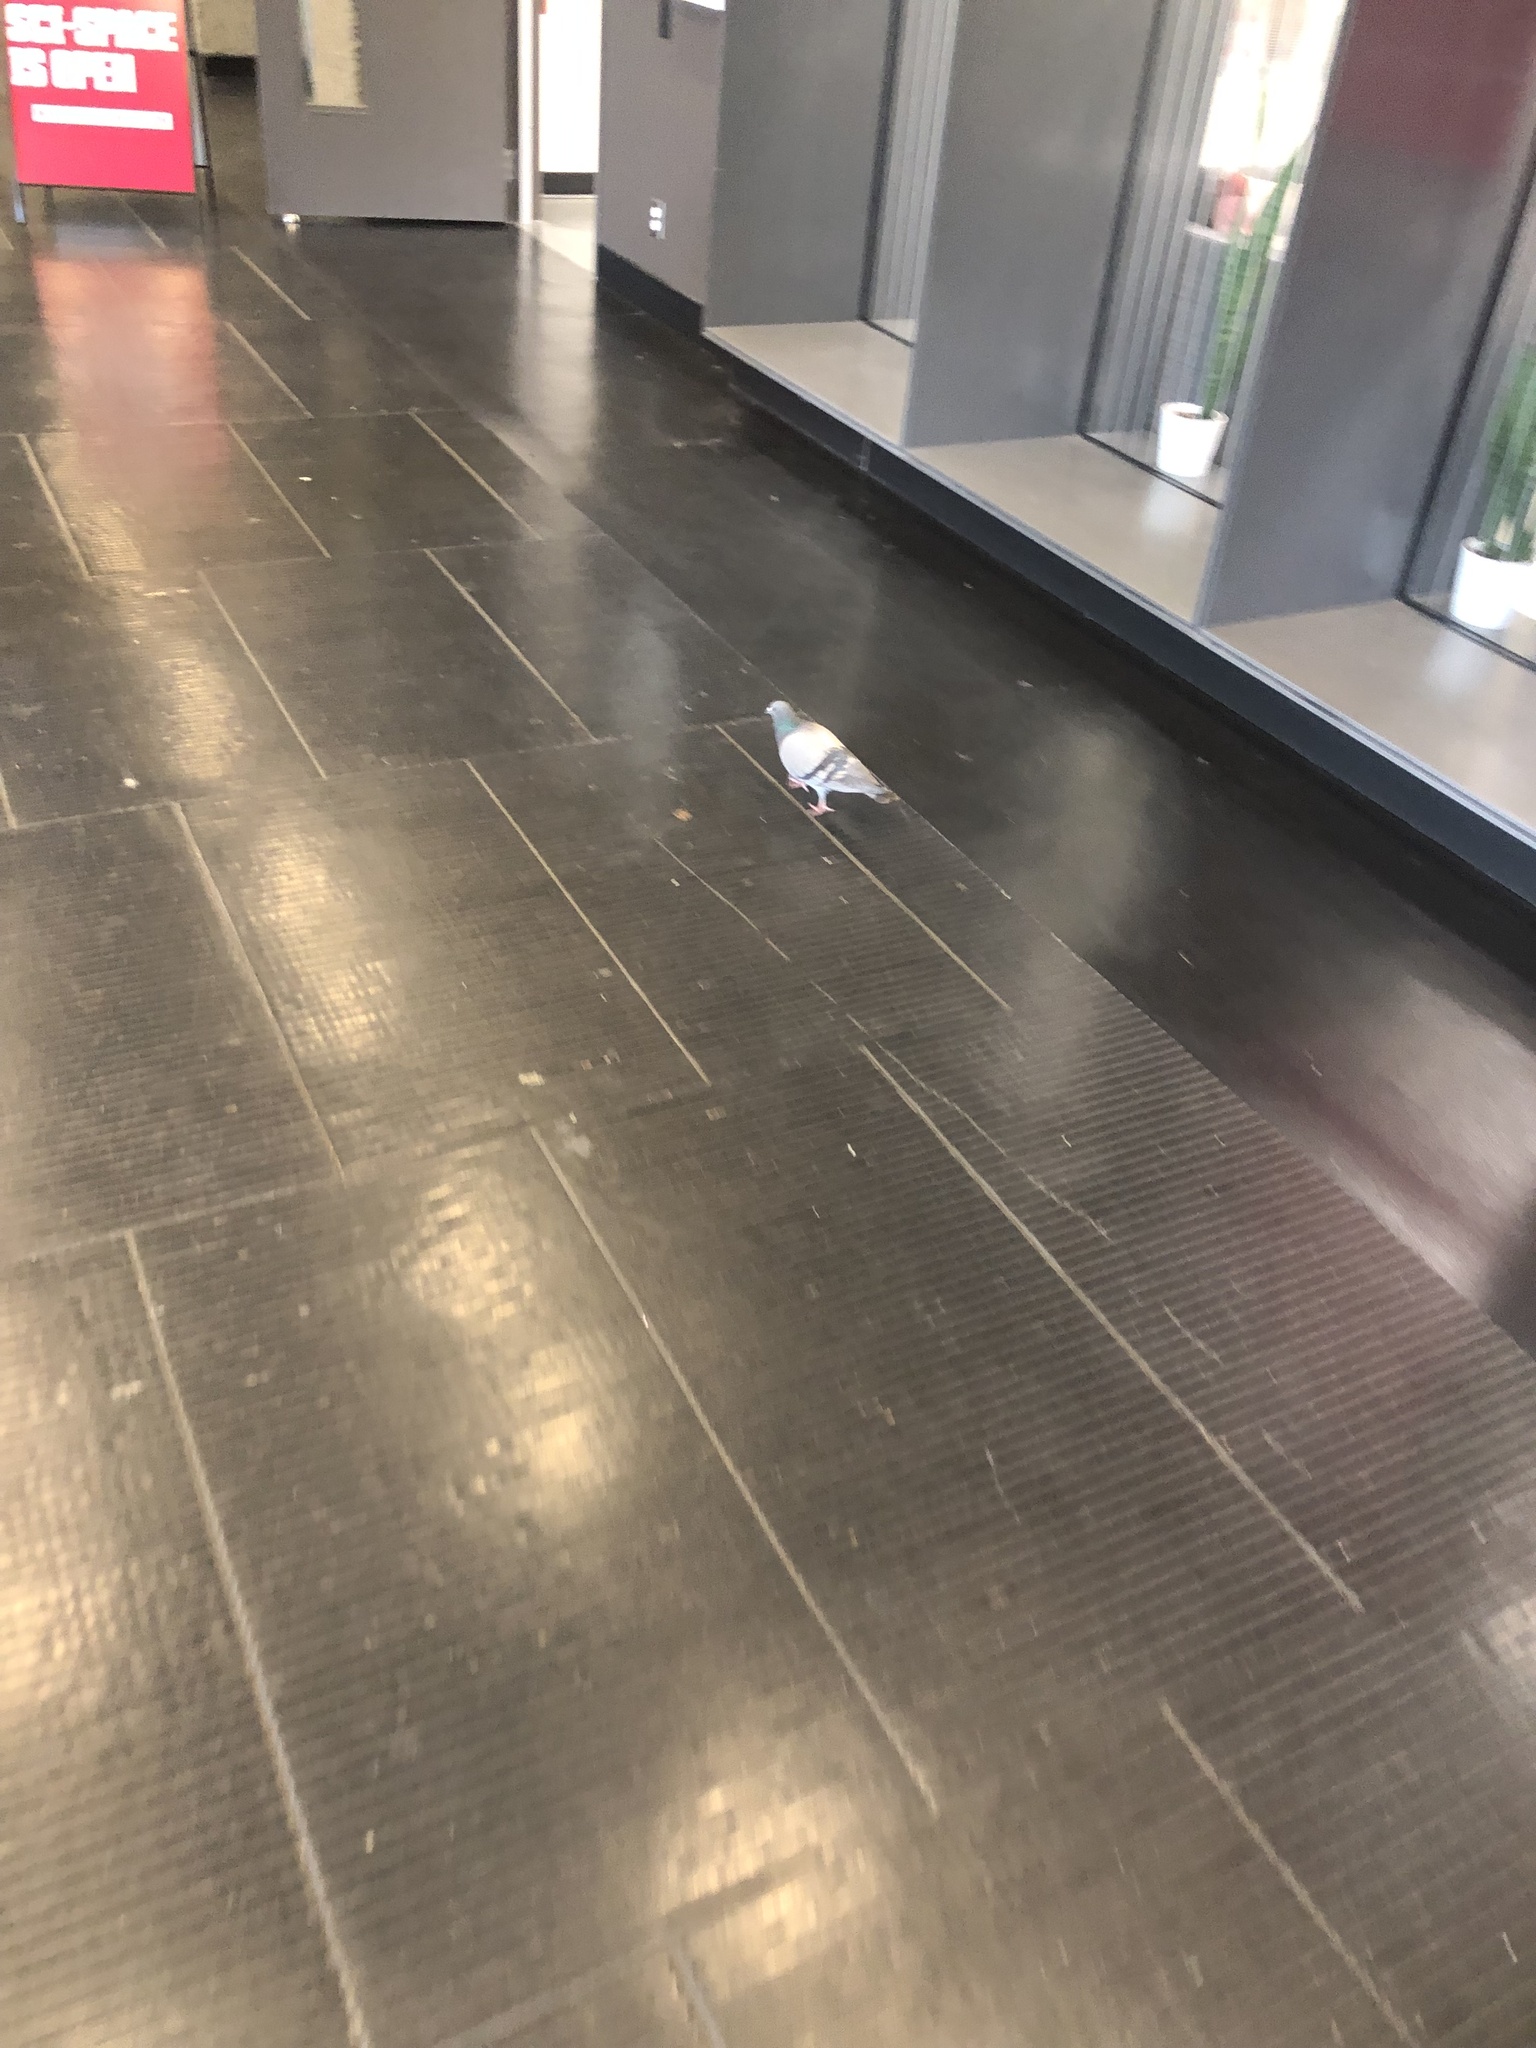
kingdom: Animalia
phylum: Chordata
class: Aves
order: Columbiformes
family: Columbidae
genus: Columba
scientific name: Columba livia
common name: Rock pigeon
